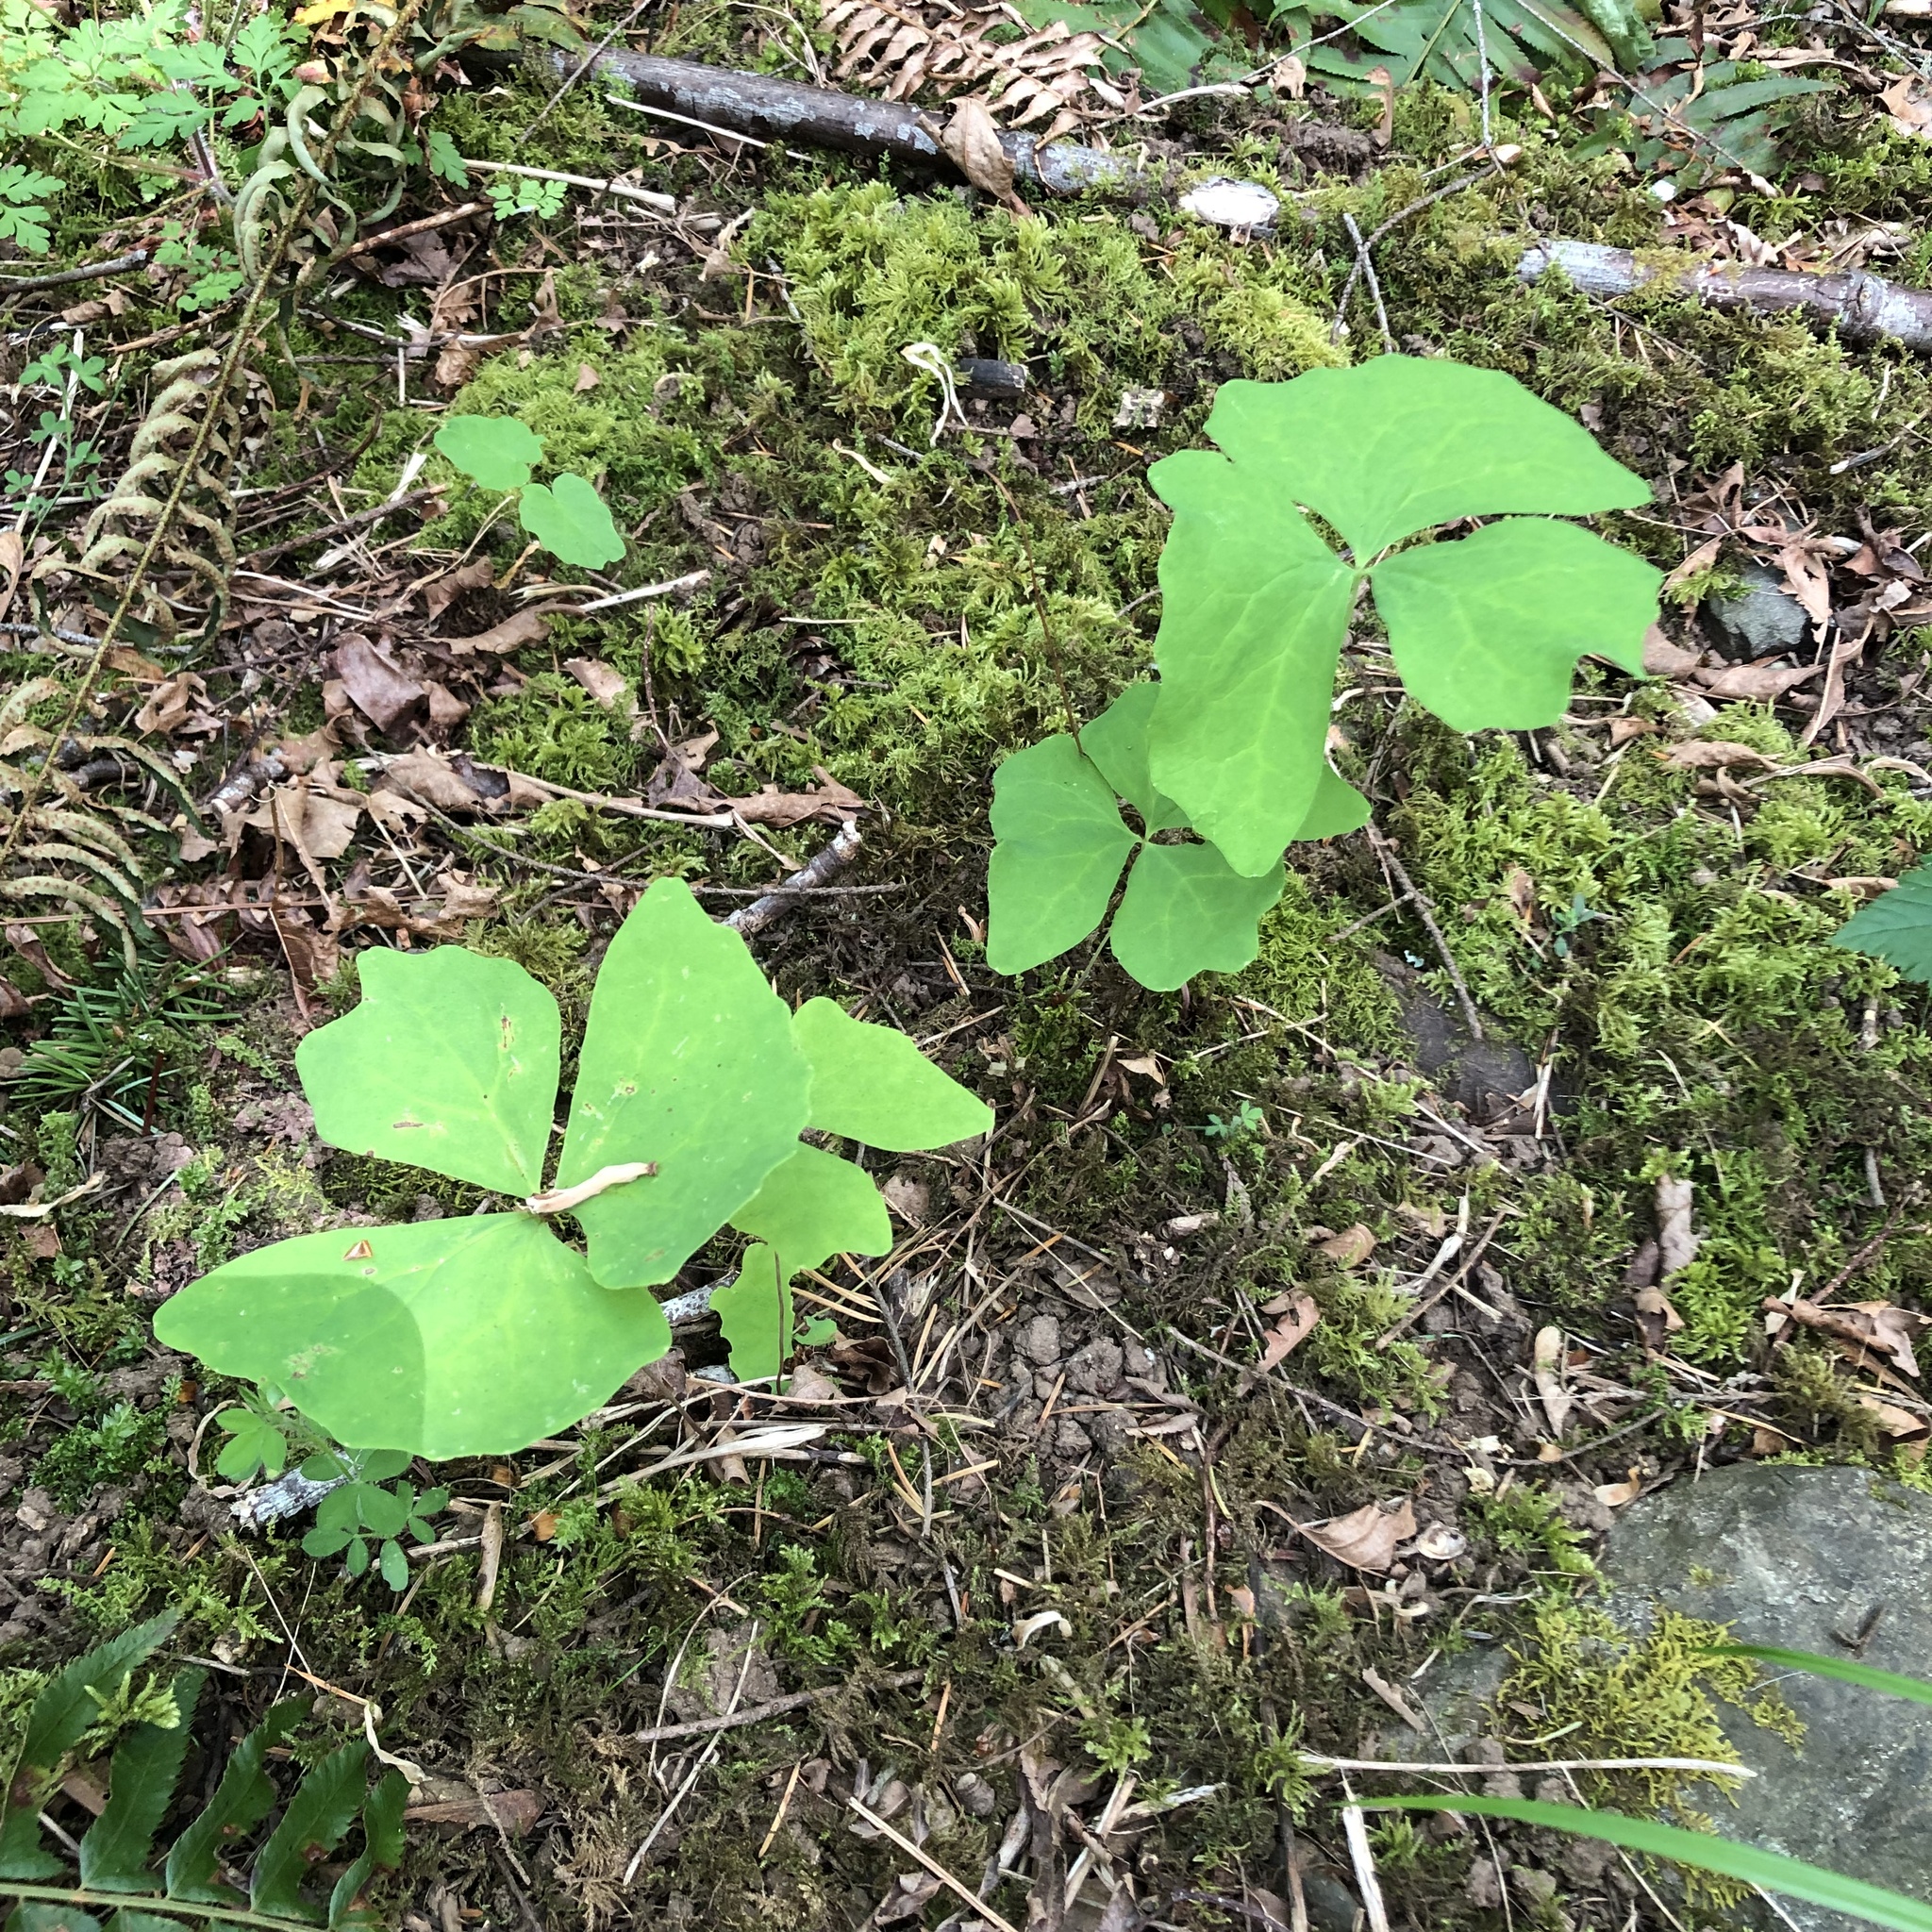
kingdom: Plantae
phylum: Tracheophyta
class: Magnoliopsida
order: Ranunculales
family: Berberidaceae
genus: Achlys
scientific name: Achlys triphylla
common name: Vanilla-leaf
